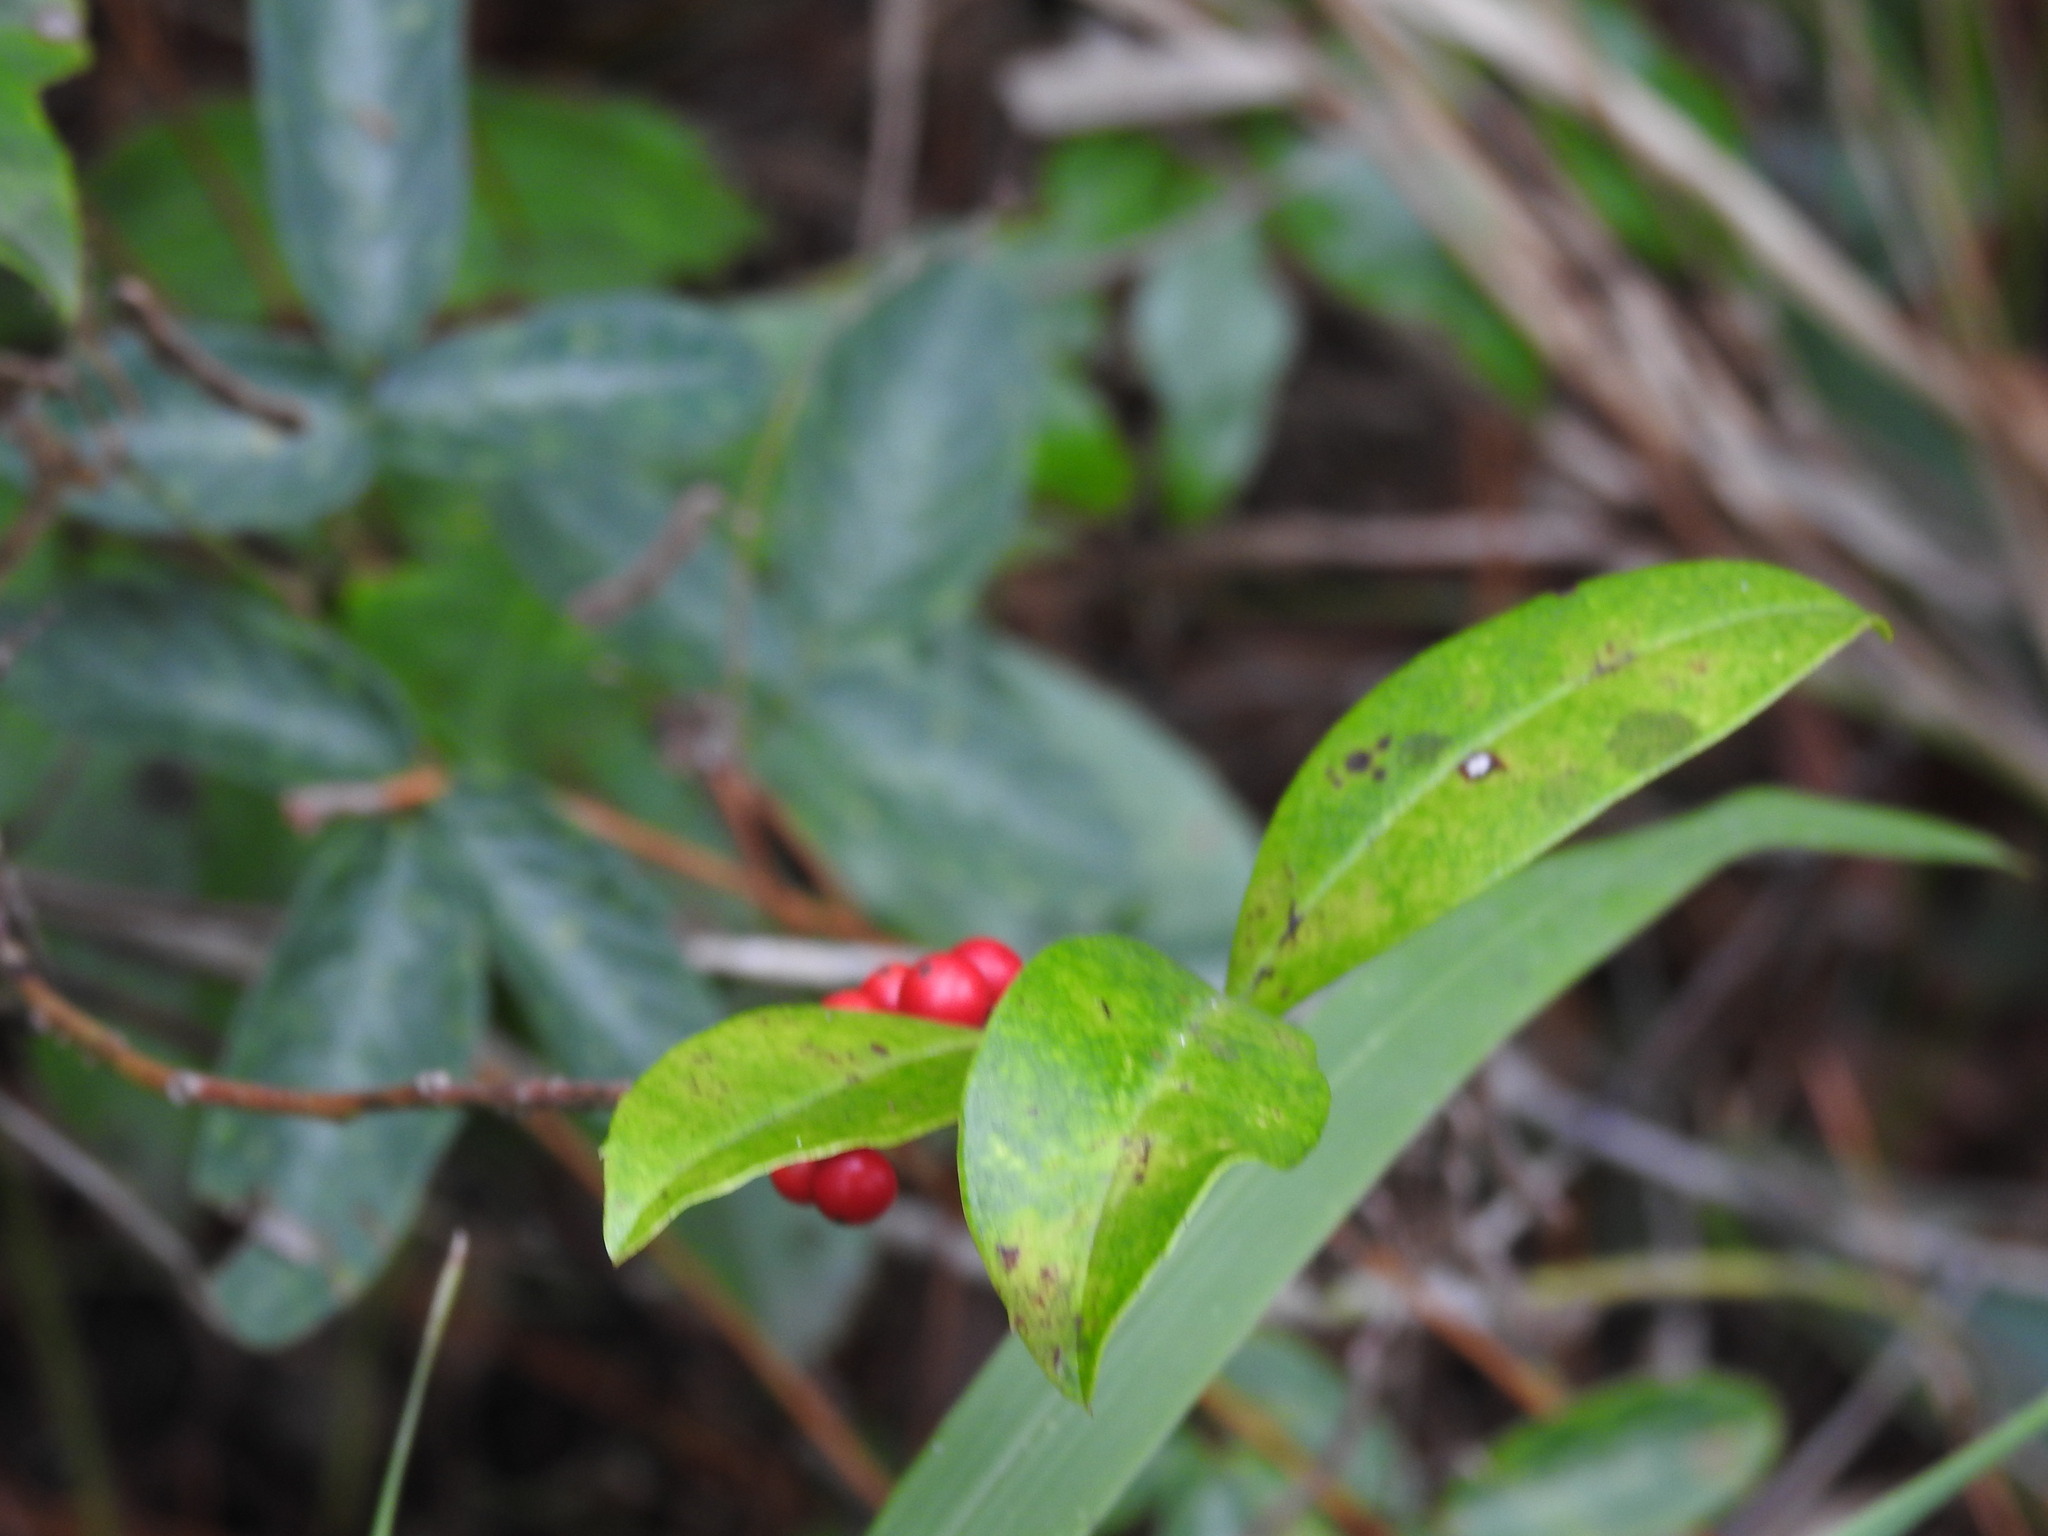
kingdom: Plantae
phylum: Tracheophyta
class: Magnoliopsida
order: Aquifoliales
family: Aquifoliaceae
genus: Ilex
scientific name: Ilex cassine
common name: Dahoon
